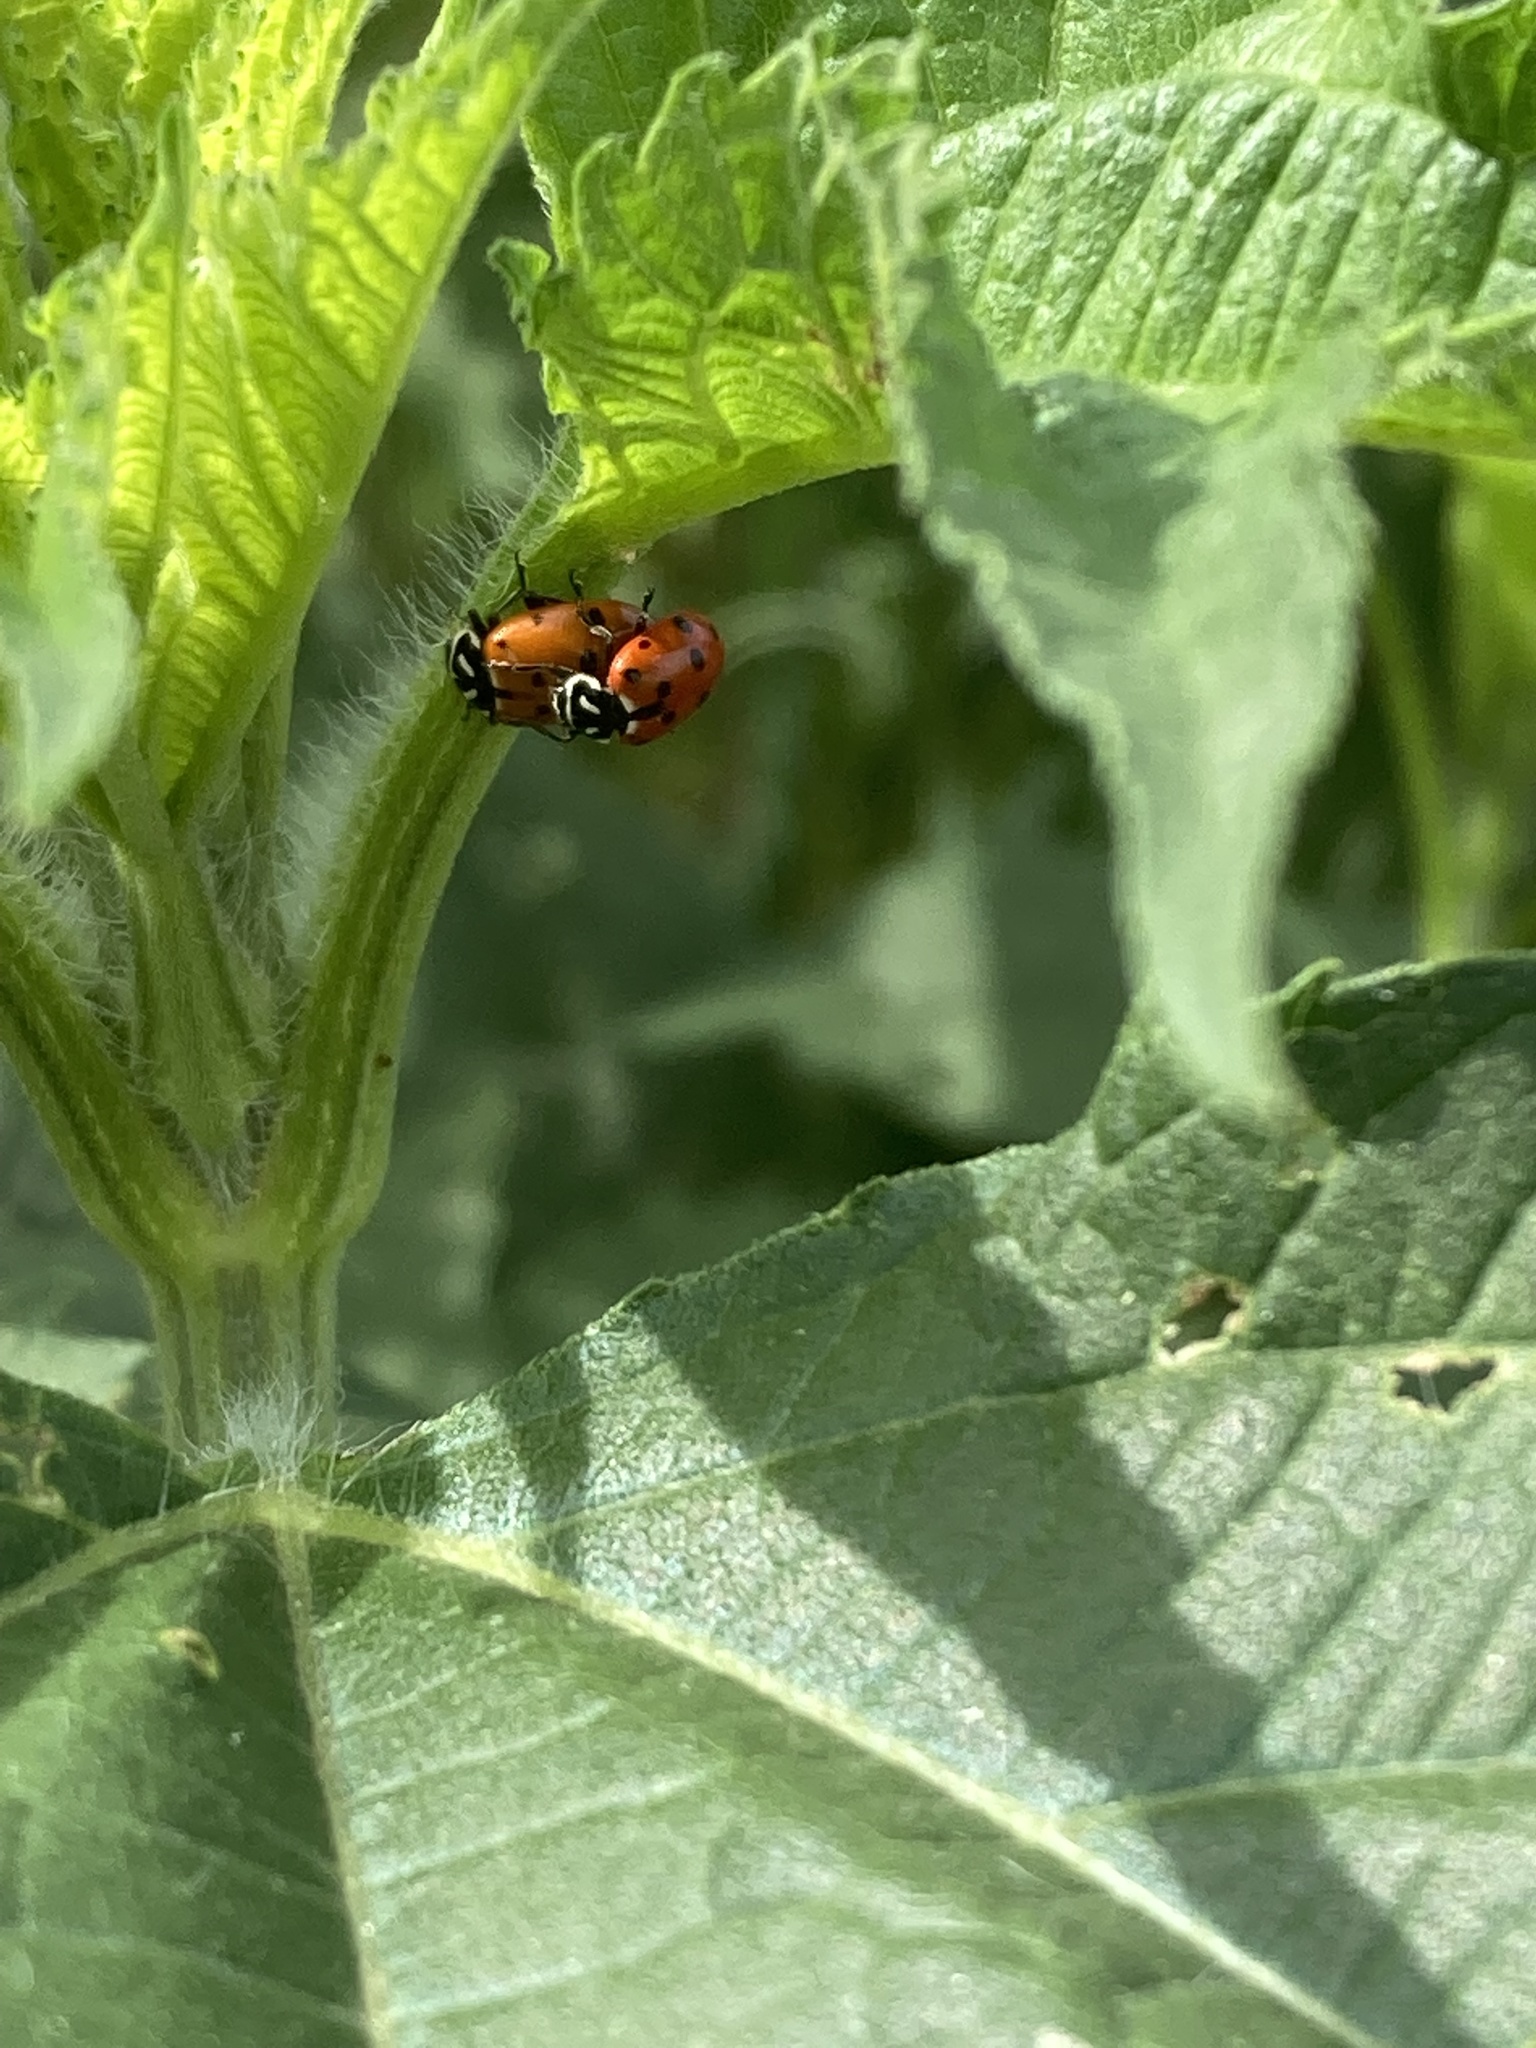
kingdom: Animalia
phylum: Arthropoda
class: Insecta
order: Coleoptera
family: Coccinellidae
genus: Hippodamia
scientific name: Hippodamia convergens
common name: Convergent lady beetle
